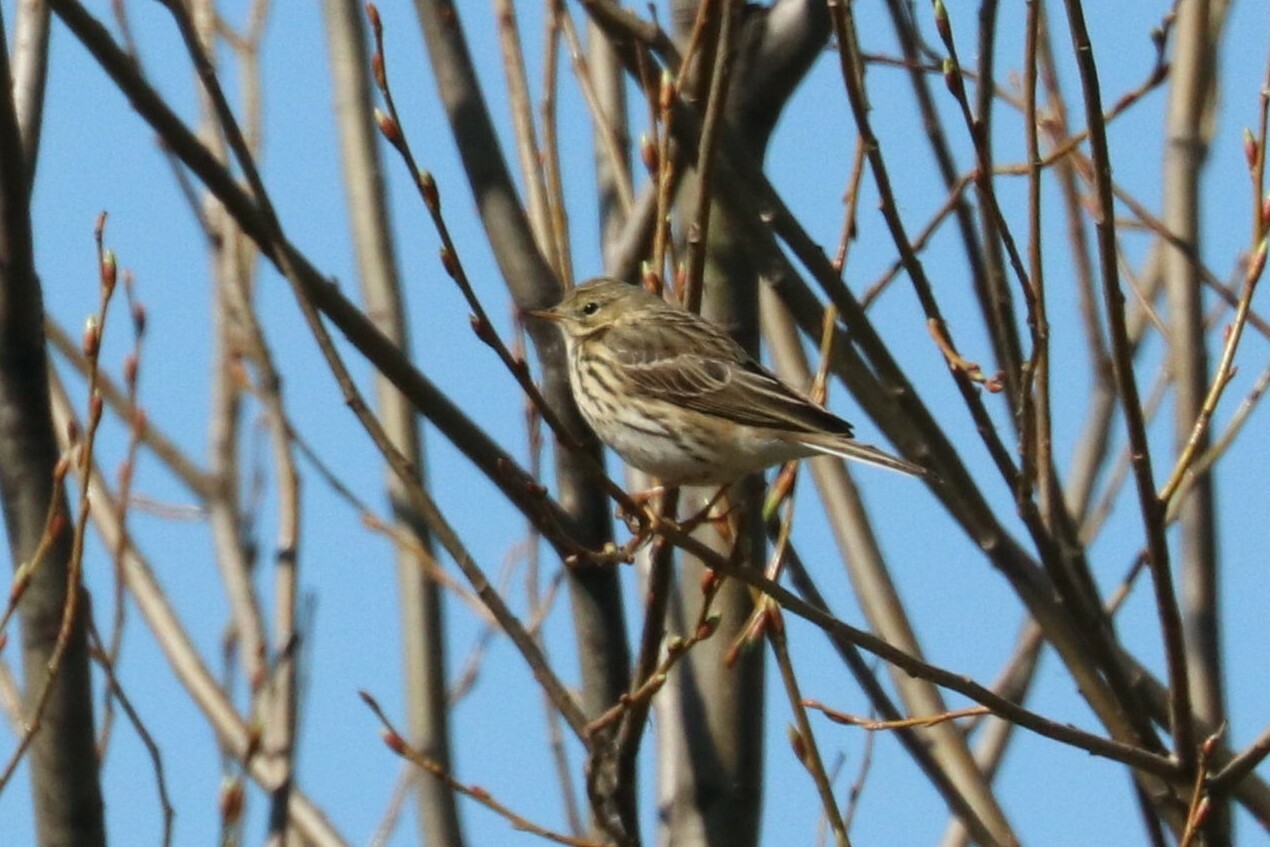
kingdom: Animalia
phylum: Chordata
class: Aves
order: Passeriformes
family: Motacillidae
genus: Anthus
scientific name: Anthus pratensis
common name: Meadow pipit
